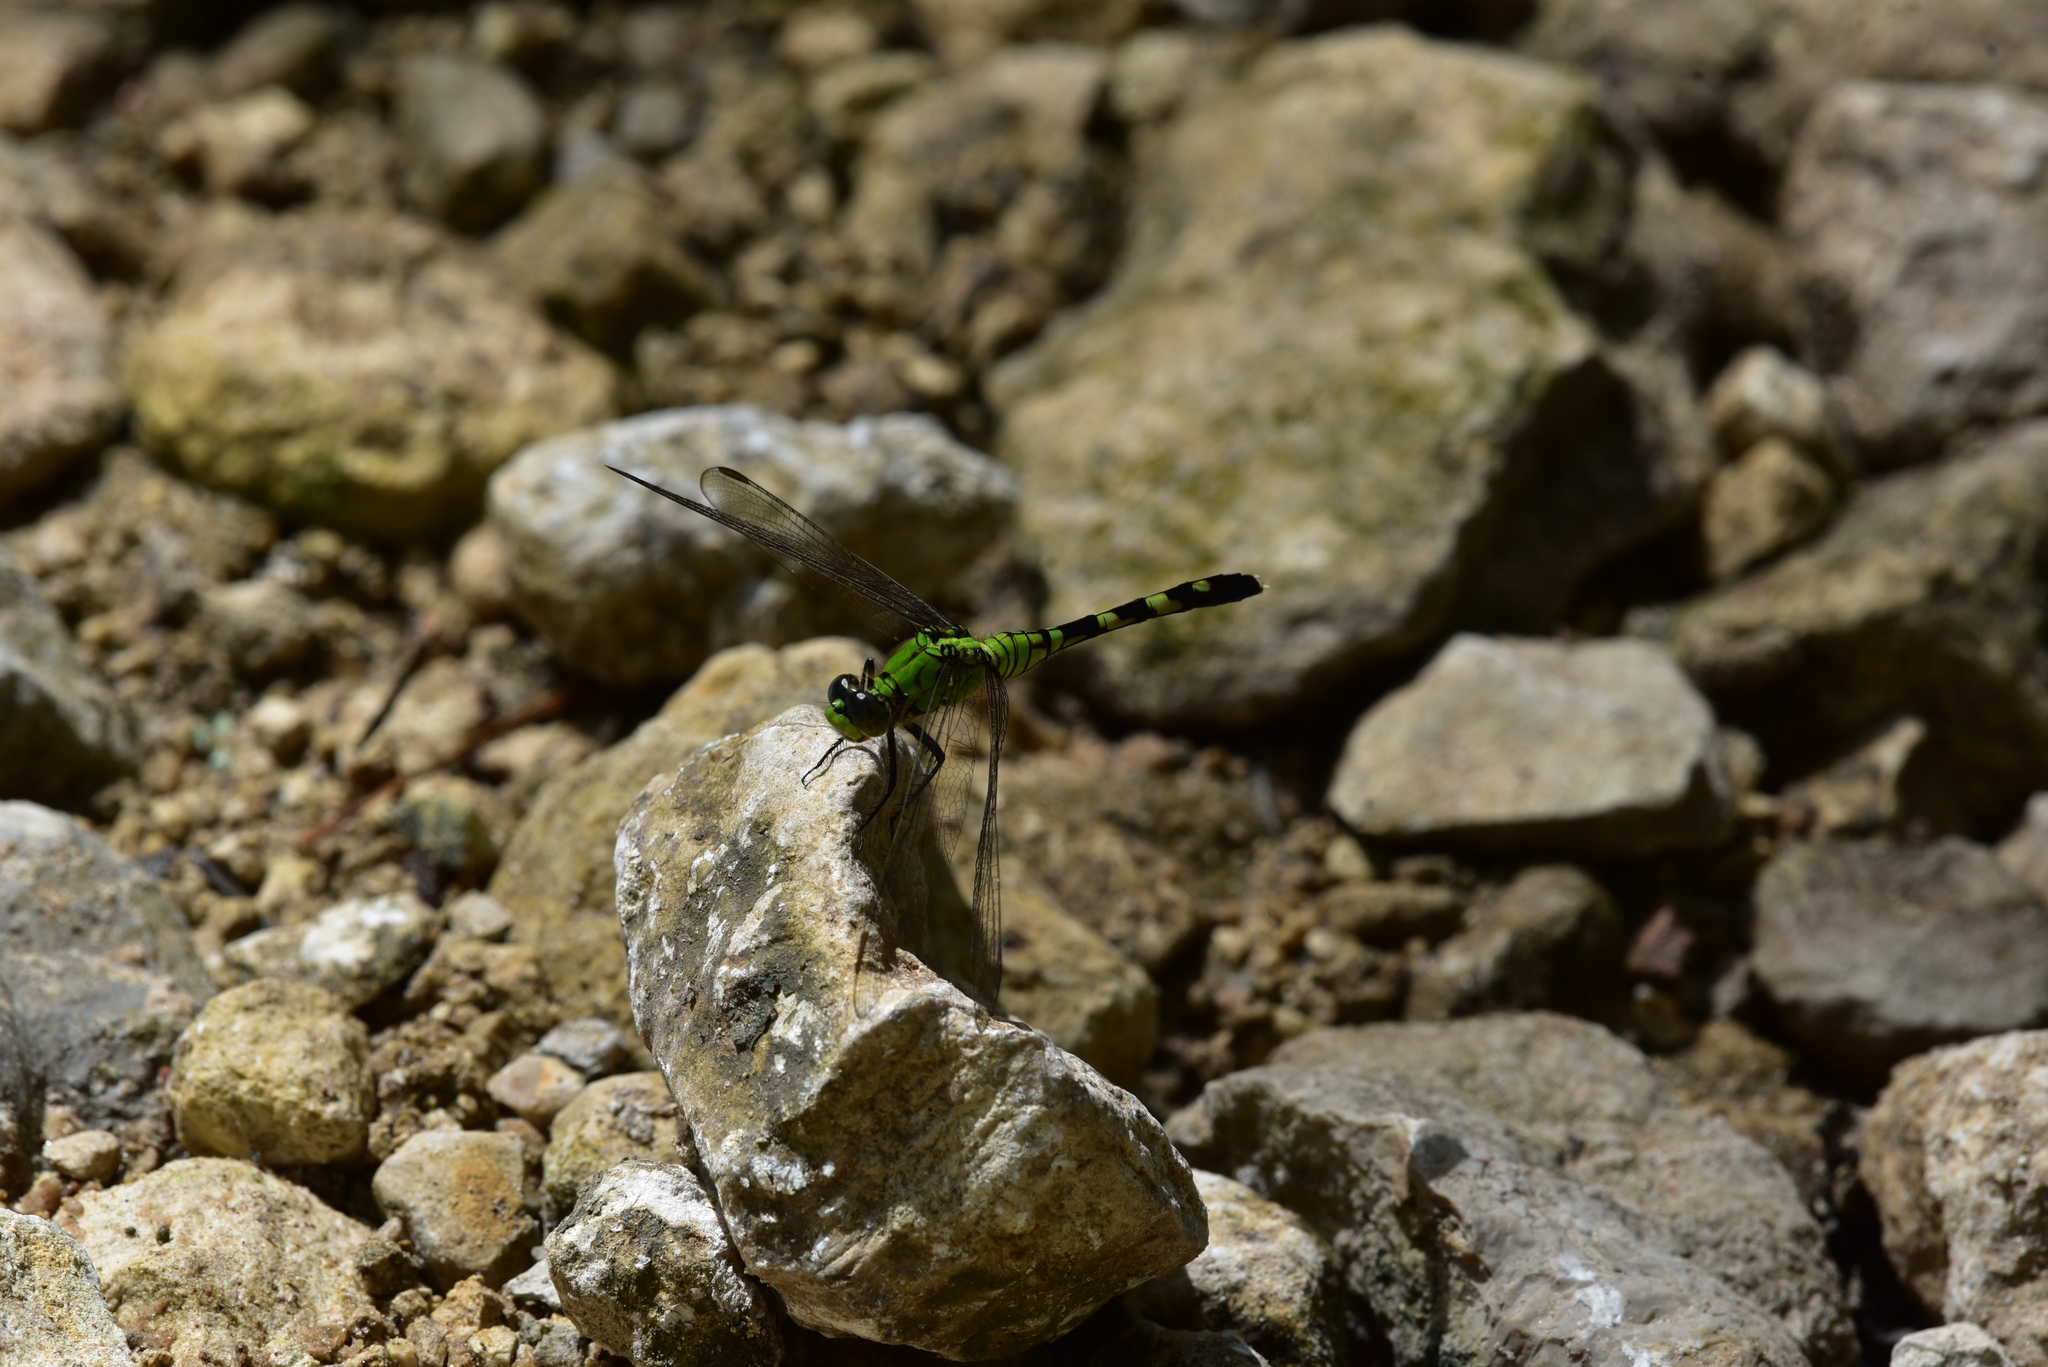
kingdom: Animalia
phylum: Arthropoda
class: Insecta
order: Odonata
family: Libellulidae
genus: Erythemis
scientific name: Erythemis simplicicollis
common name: Eastern pondhawk
